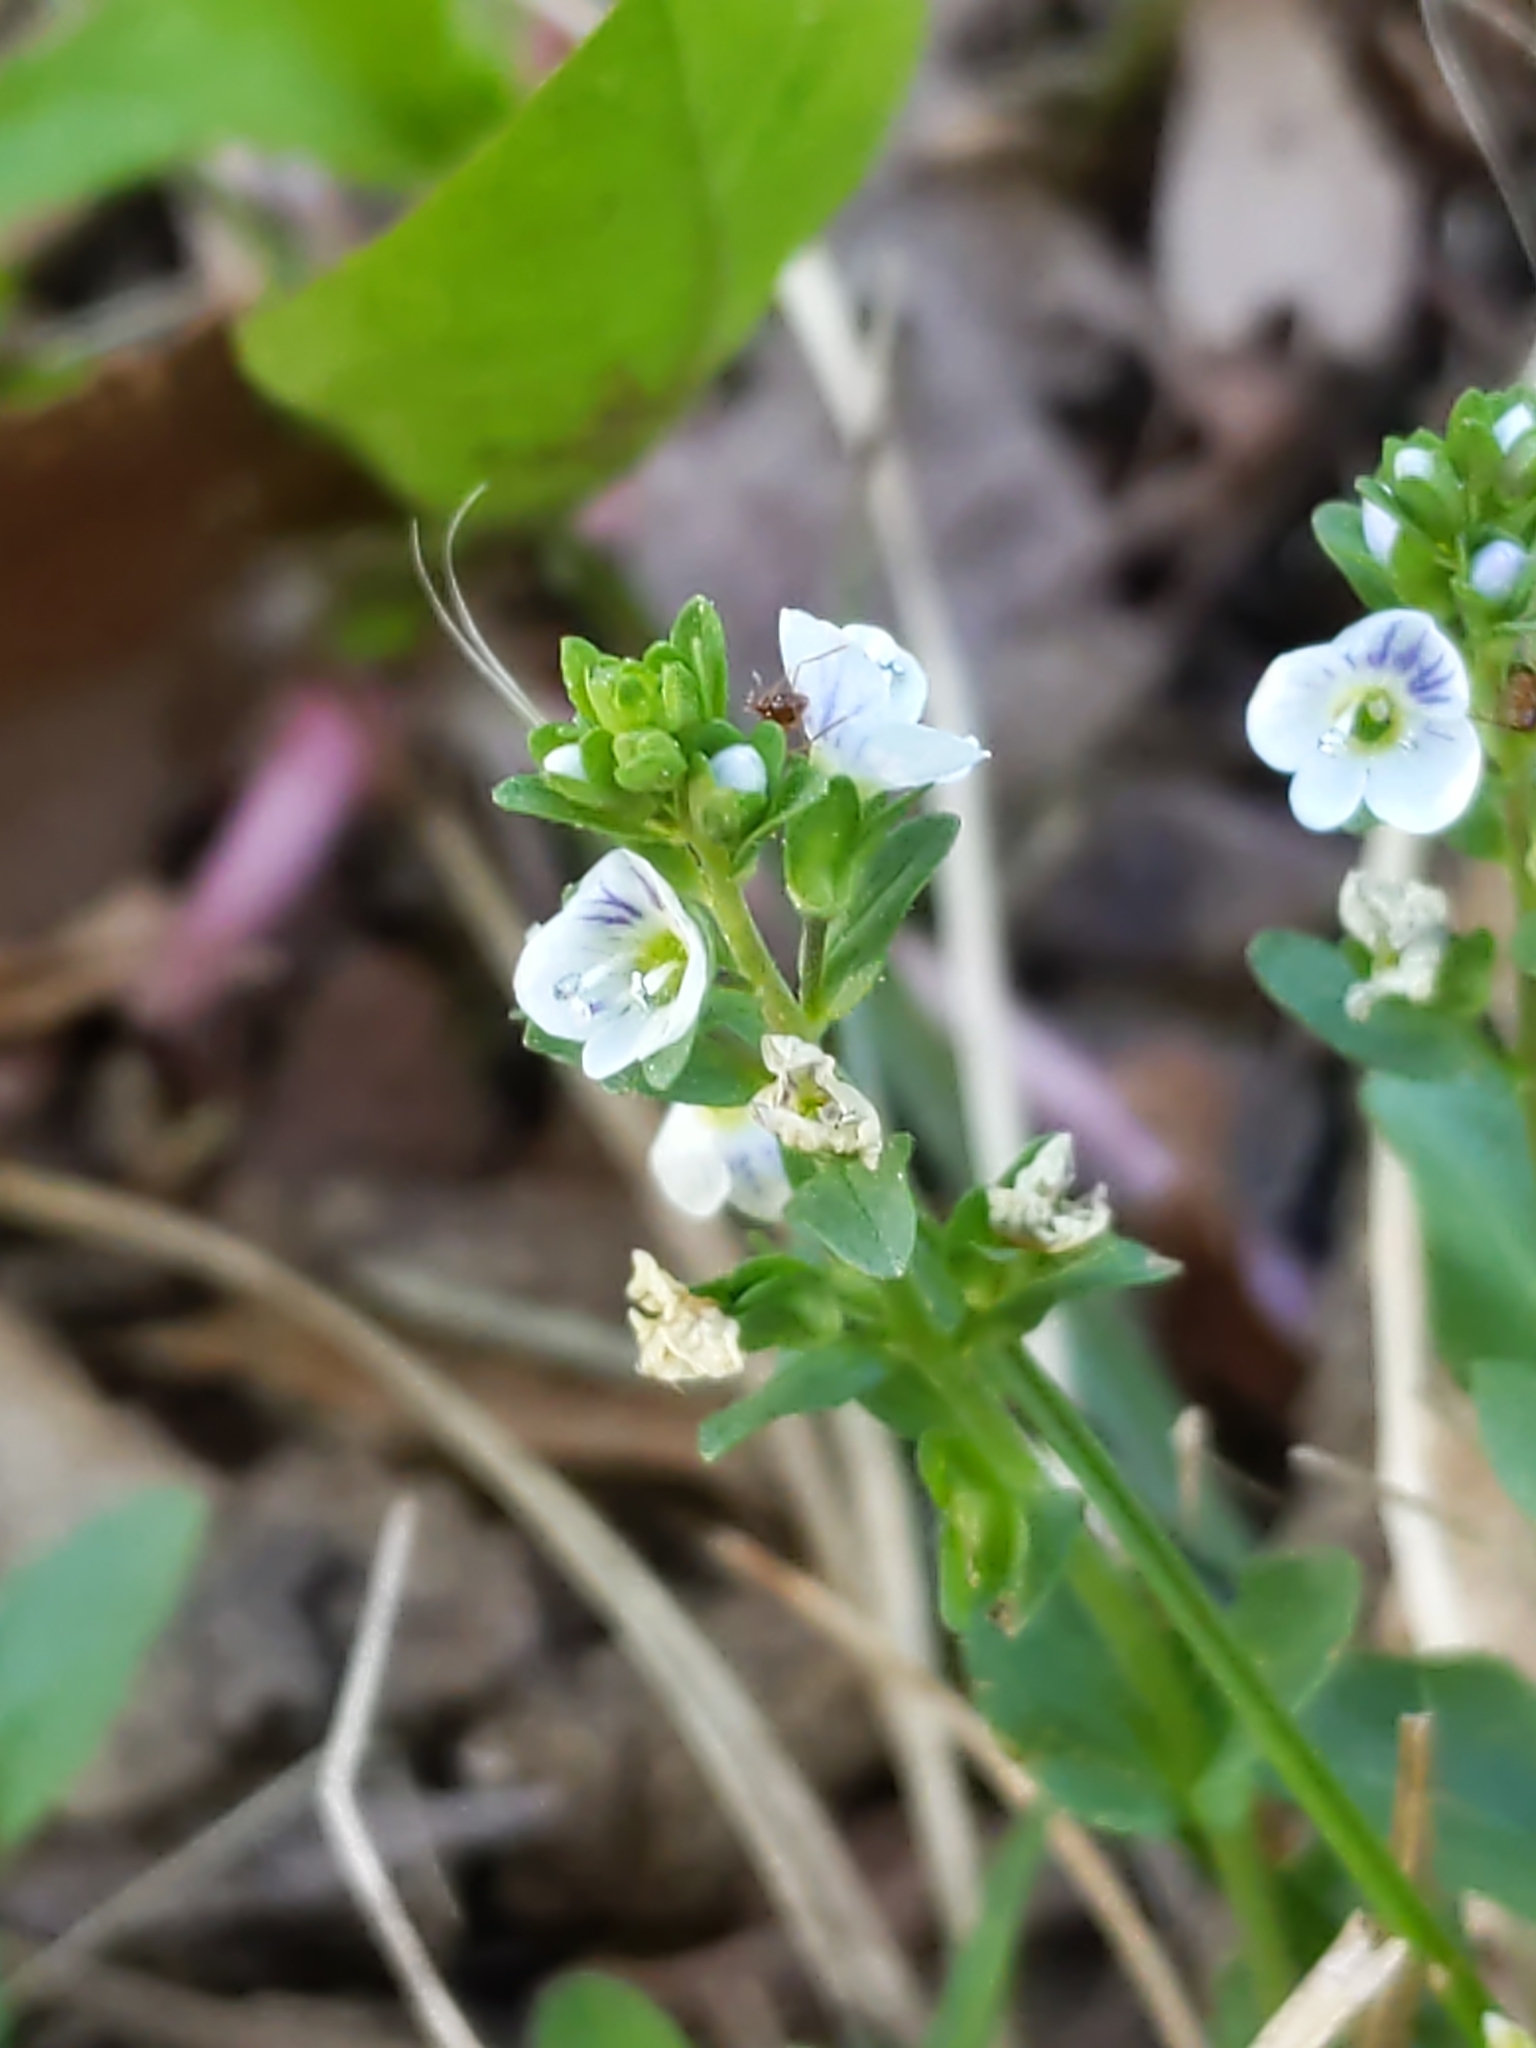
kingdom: Plantae
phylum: Tracheophyta
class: Magnoliopsida
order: Lamiales
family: Plantaginaceae
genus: Veronica
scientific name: Veronica serpyllifolia
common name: Thyme-leaved speedwell
